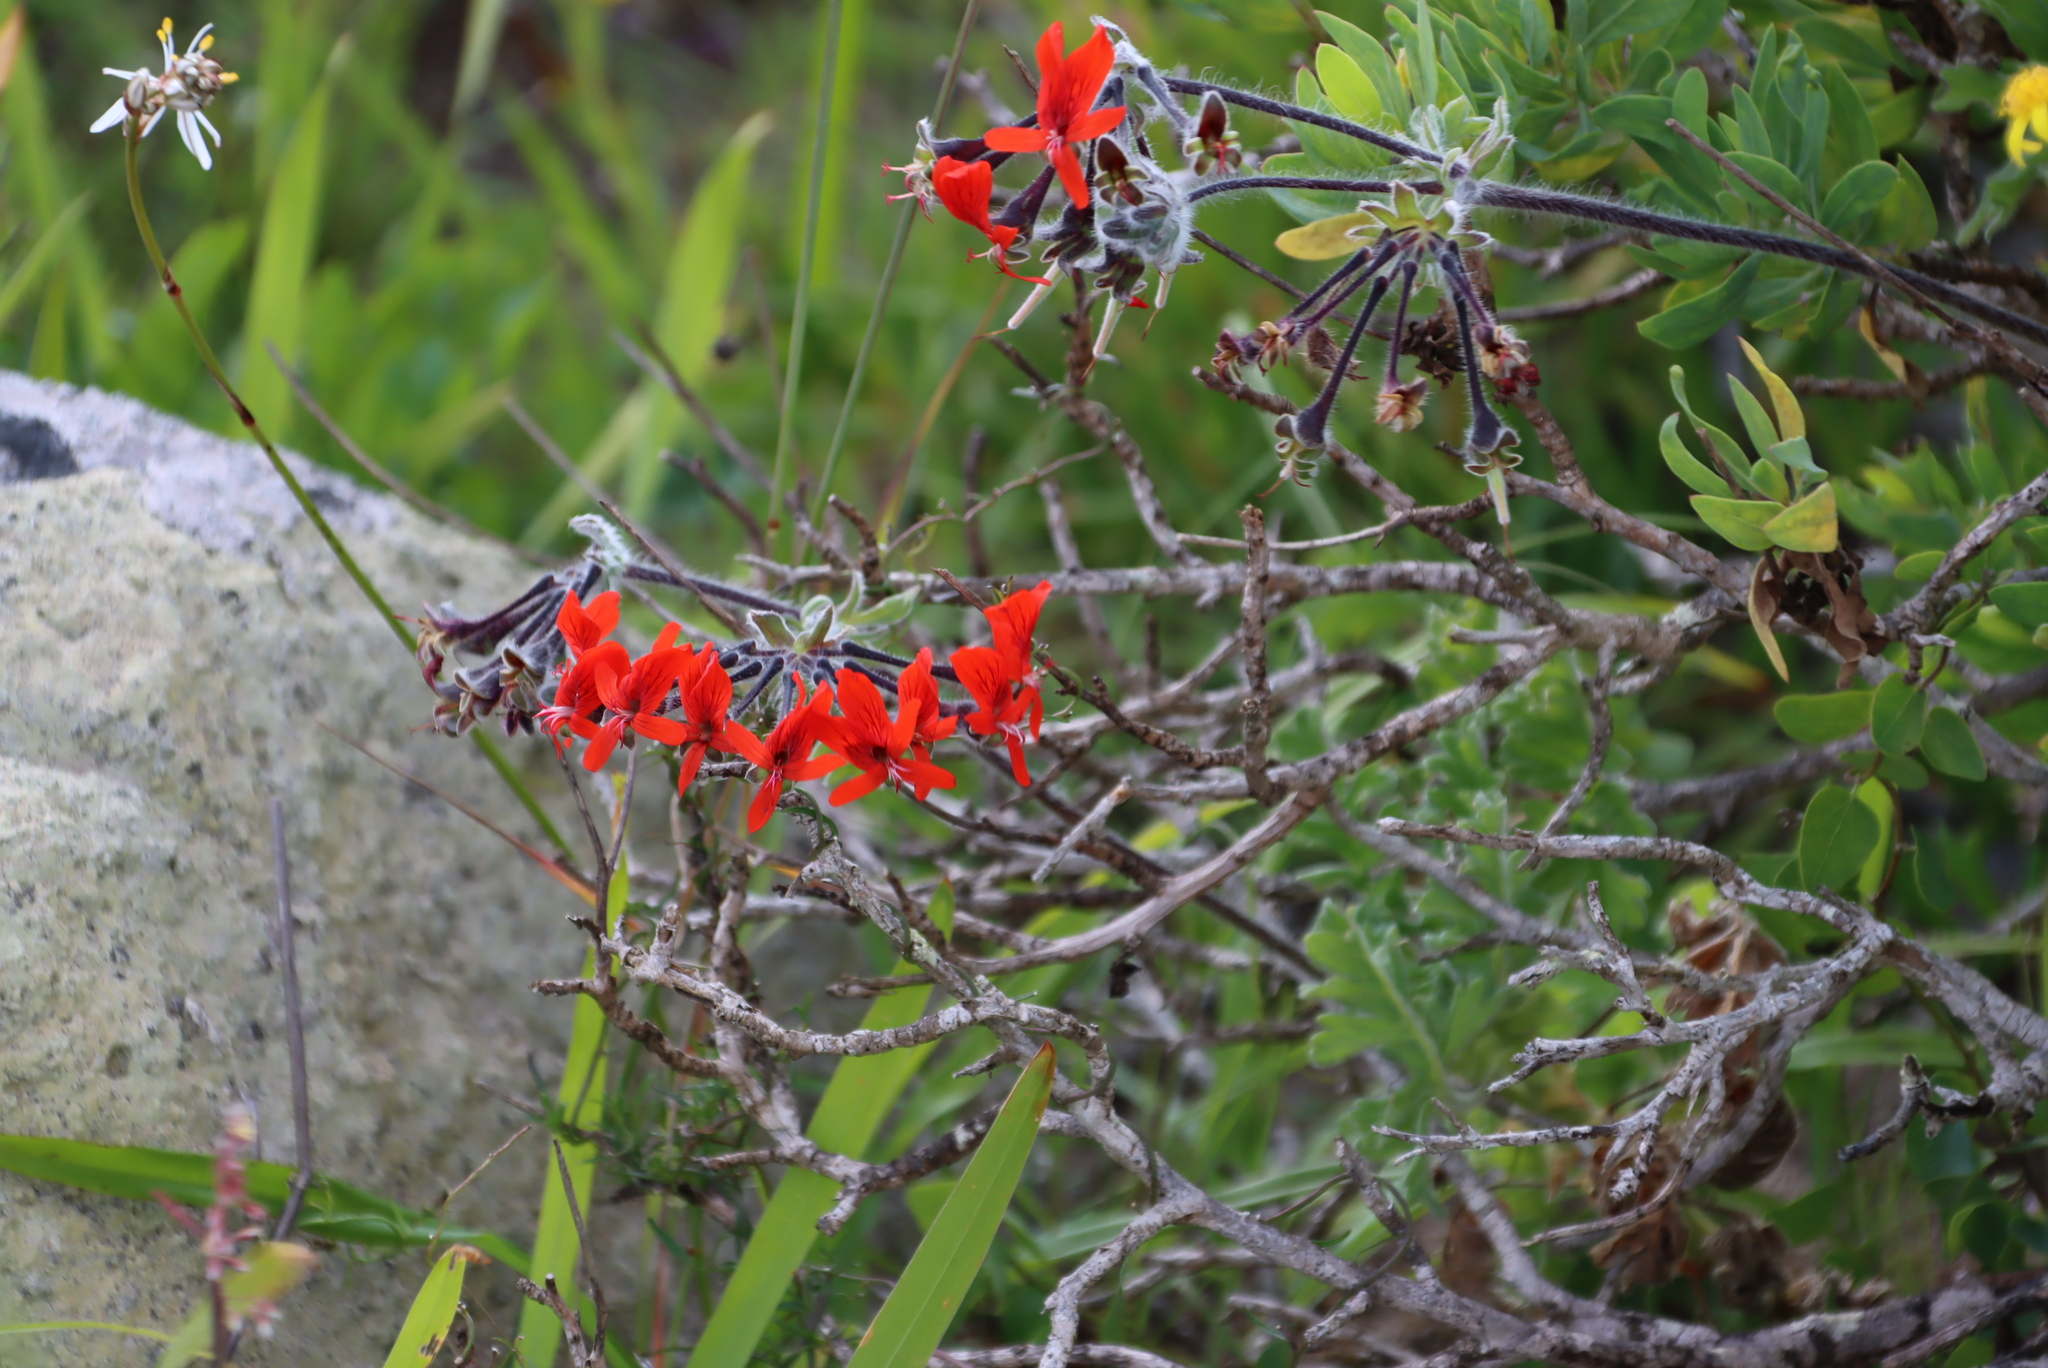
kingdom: Plantae
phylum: Tracheophyta
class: Magnoliopsida
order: Geraniales
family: Geraniaceae
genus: Pelargonium
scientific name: Pelargonium fulgidum
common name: Celandine-leaf pelargonium
